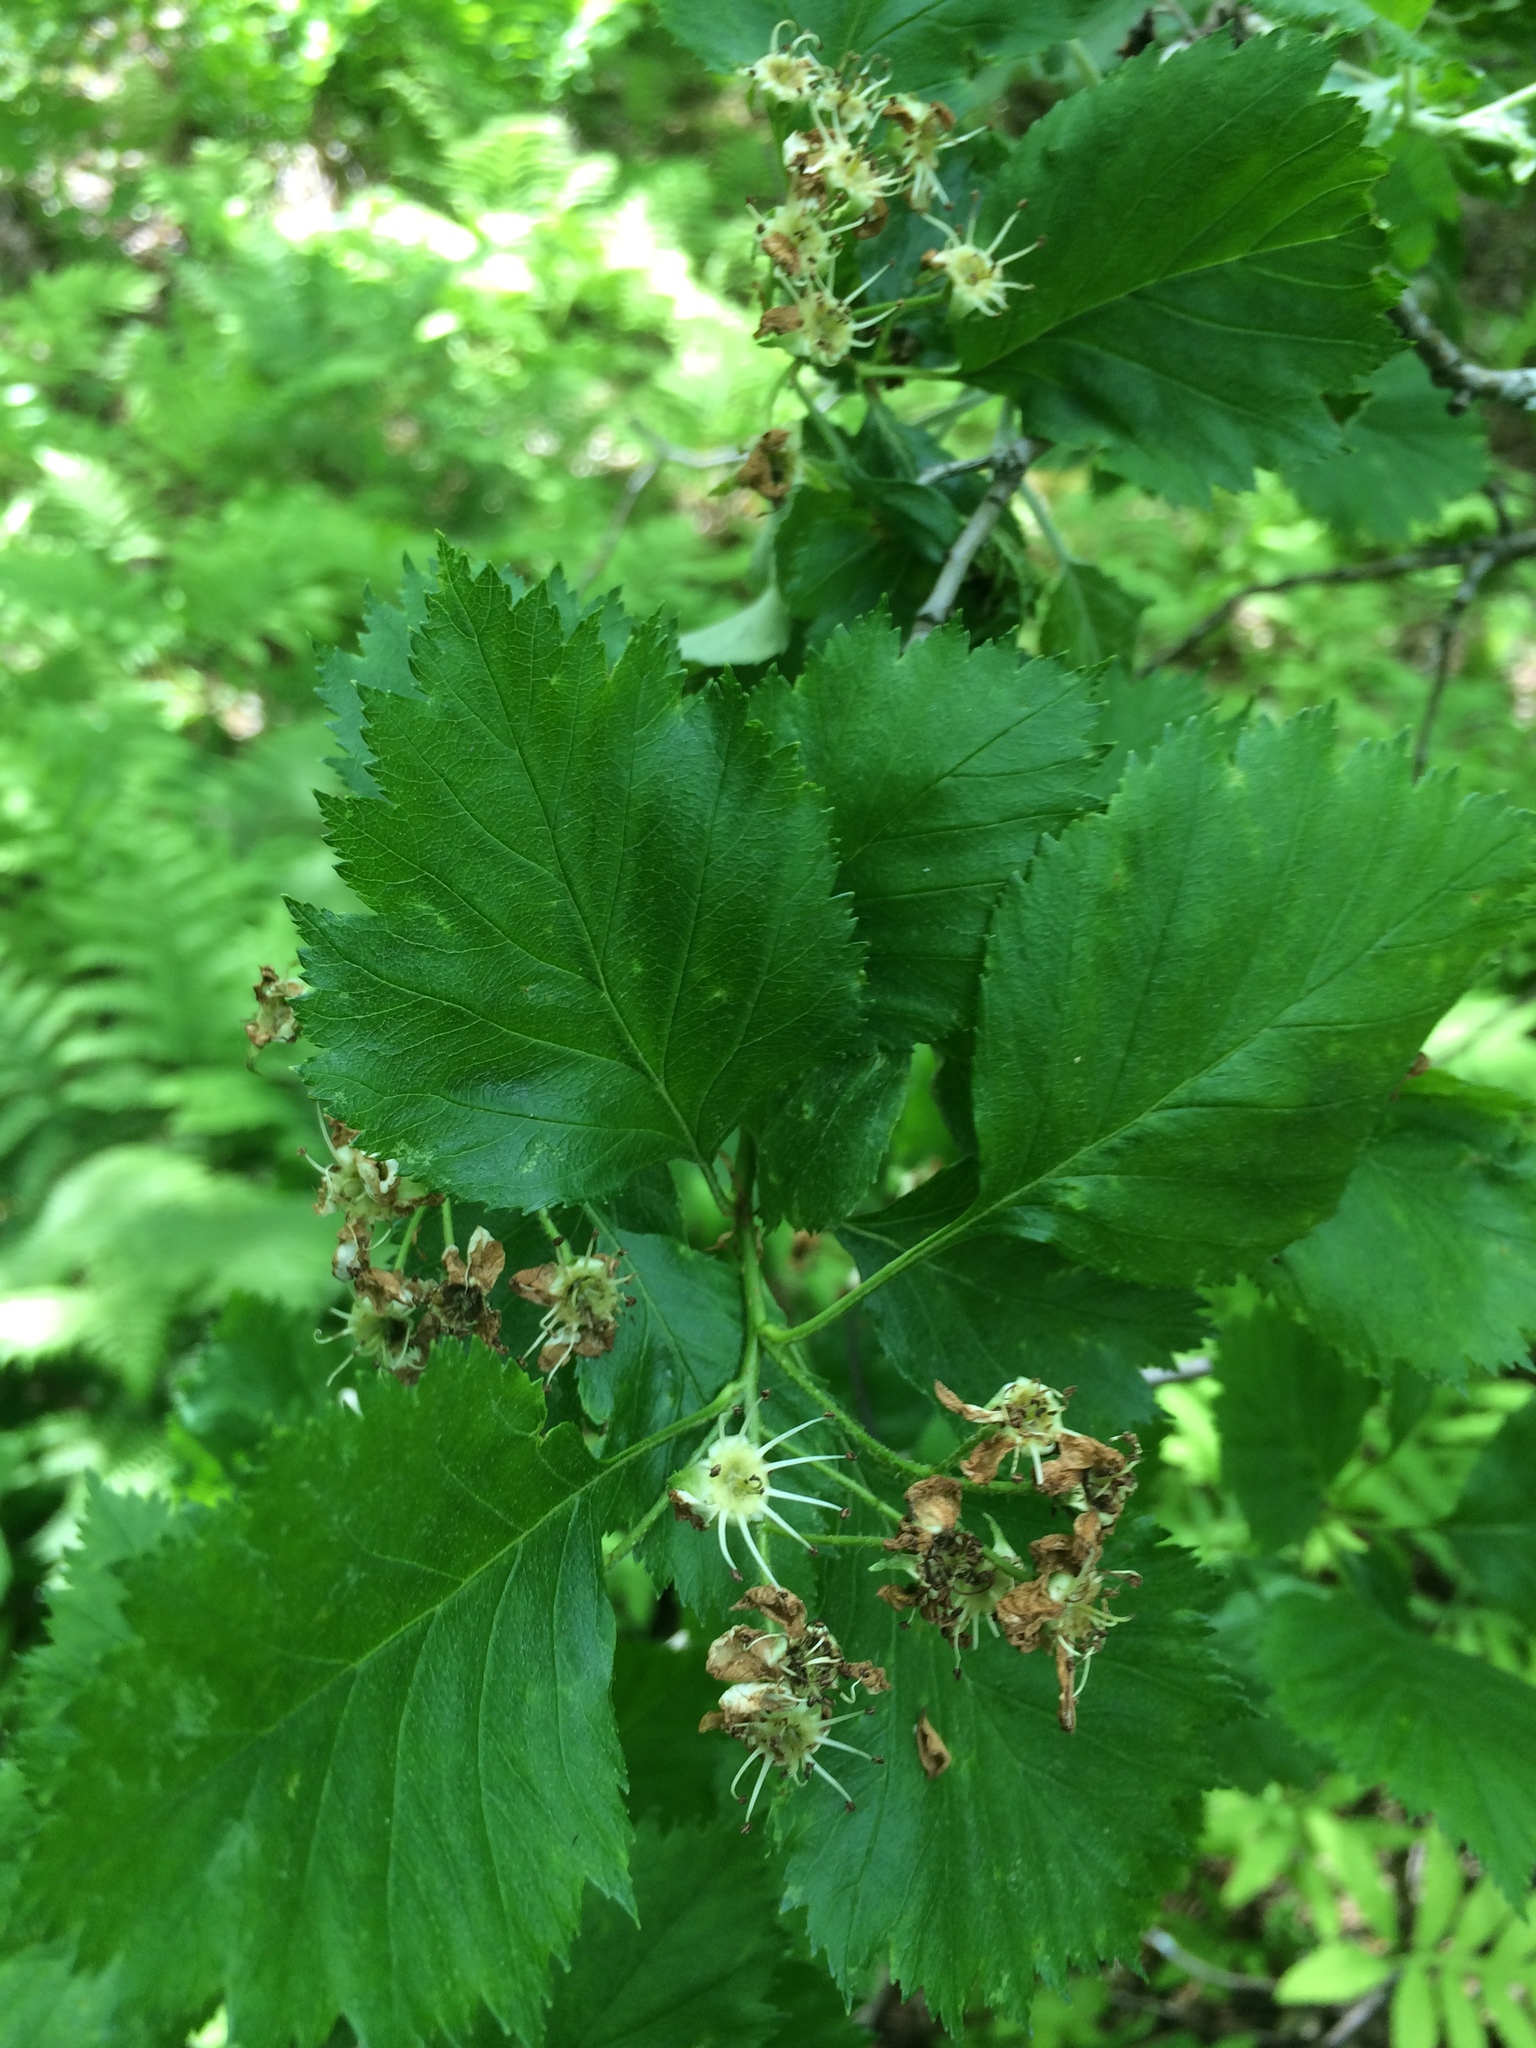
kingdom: Plantae
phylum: Tracheophyta
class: Magnoliopsida
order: Rosales
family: Rosaceae
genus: Crataegus
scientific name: Crataegus chrysocarpa
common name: Fire-berry hawthorn
